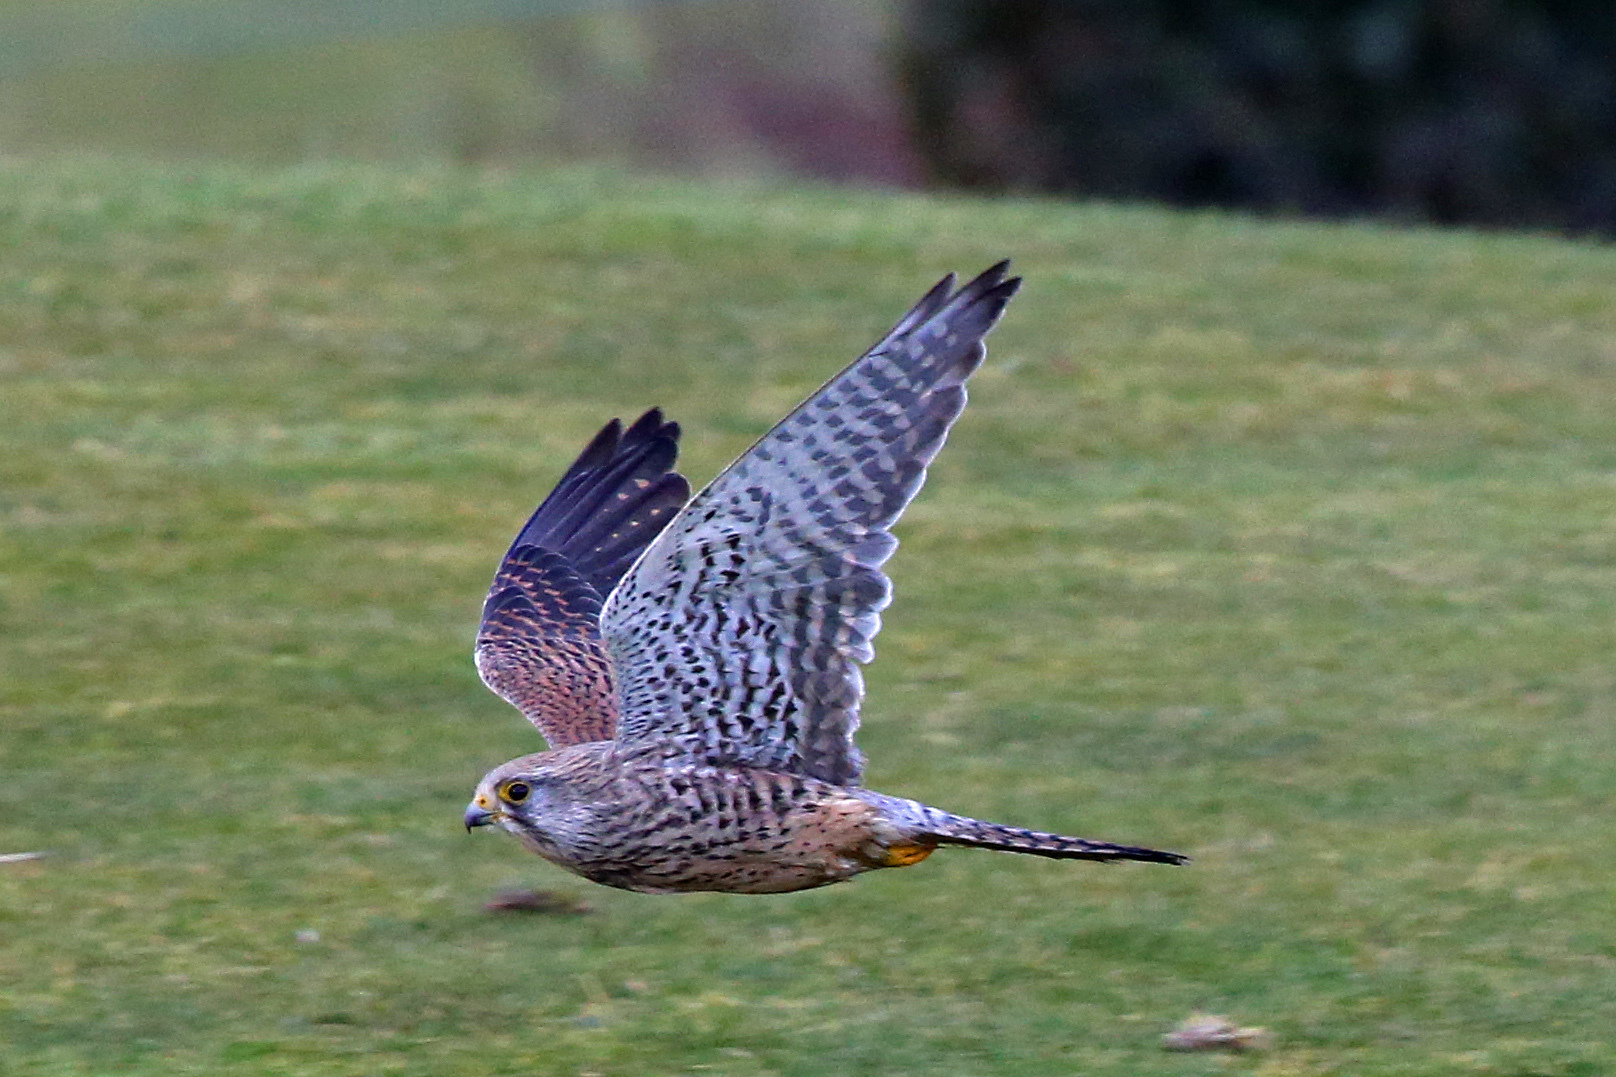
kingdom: Animalia
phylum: Chordata
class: Aves
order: Falconiformes
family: Falconidae
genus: Falco
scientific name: Falco tinnunculus
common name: Common kestrel
